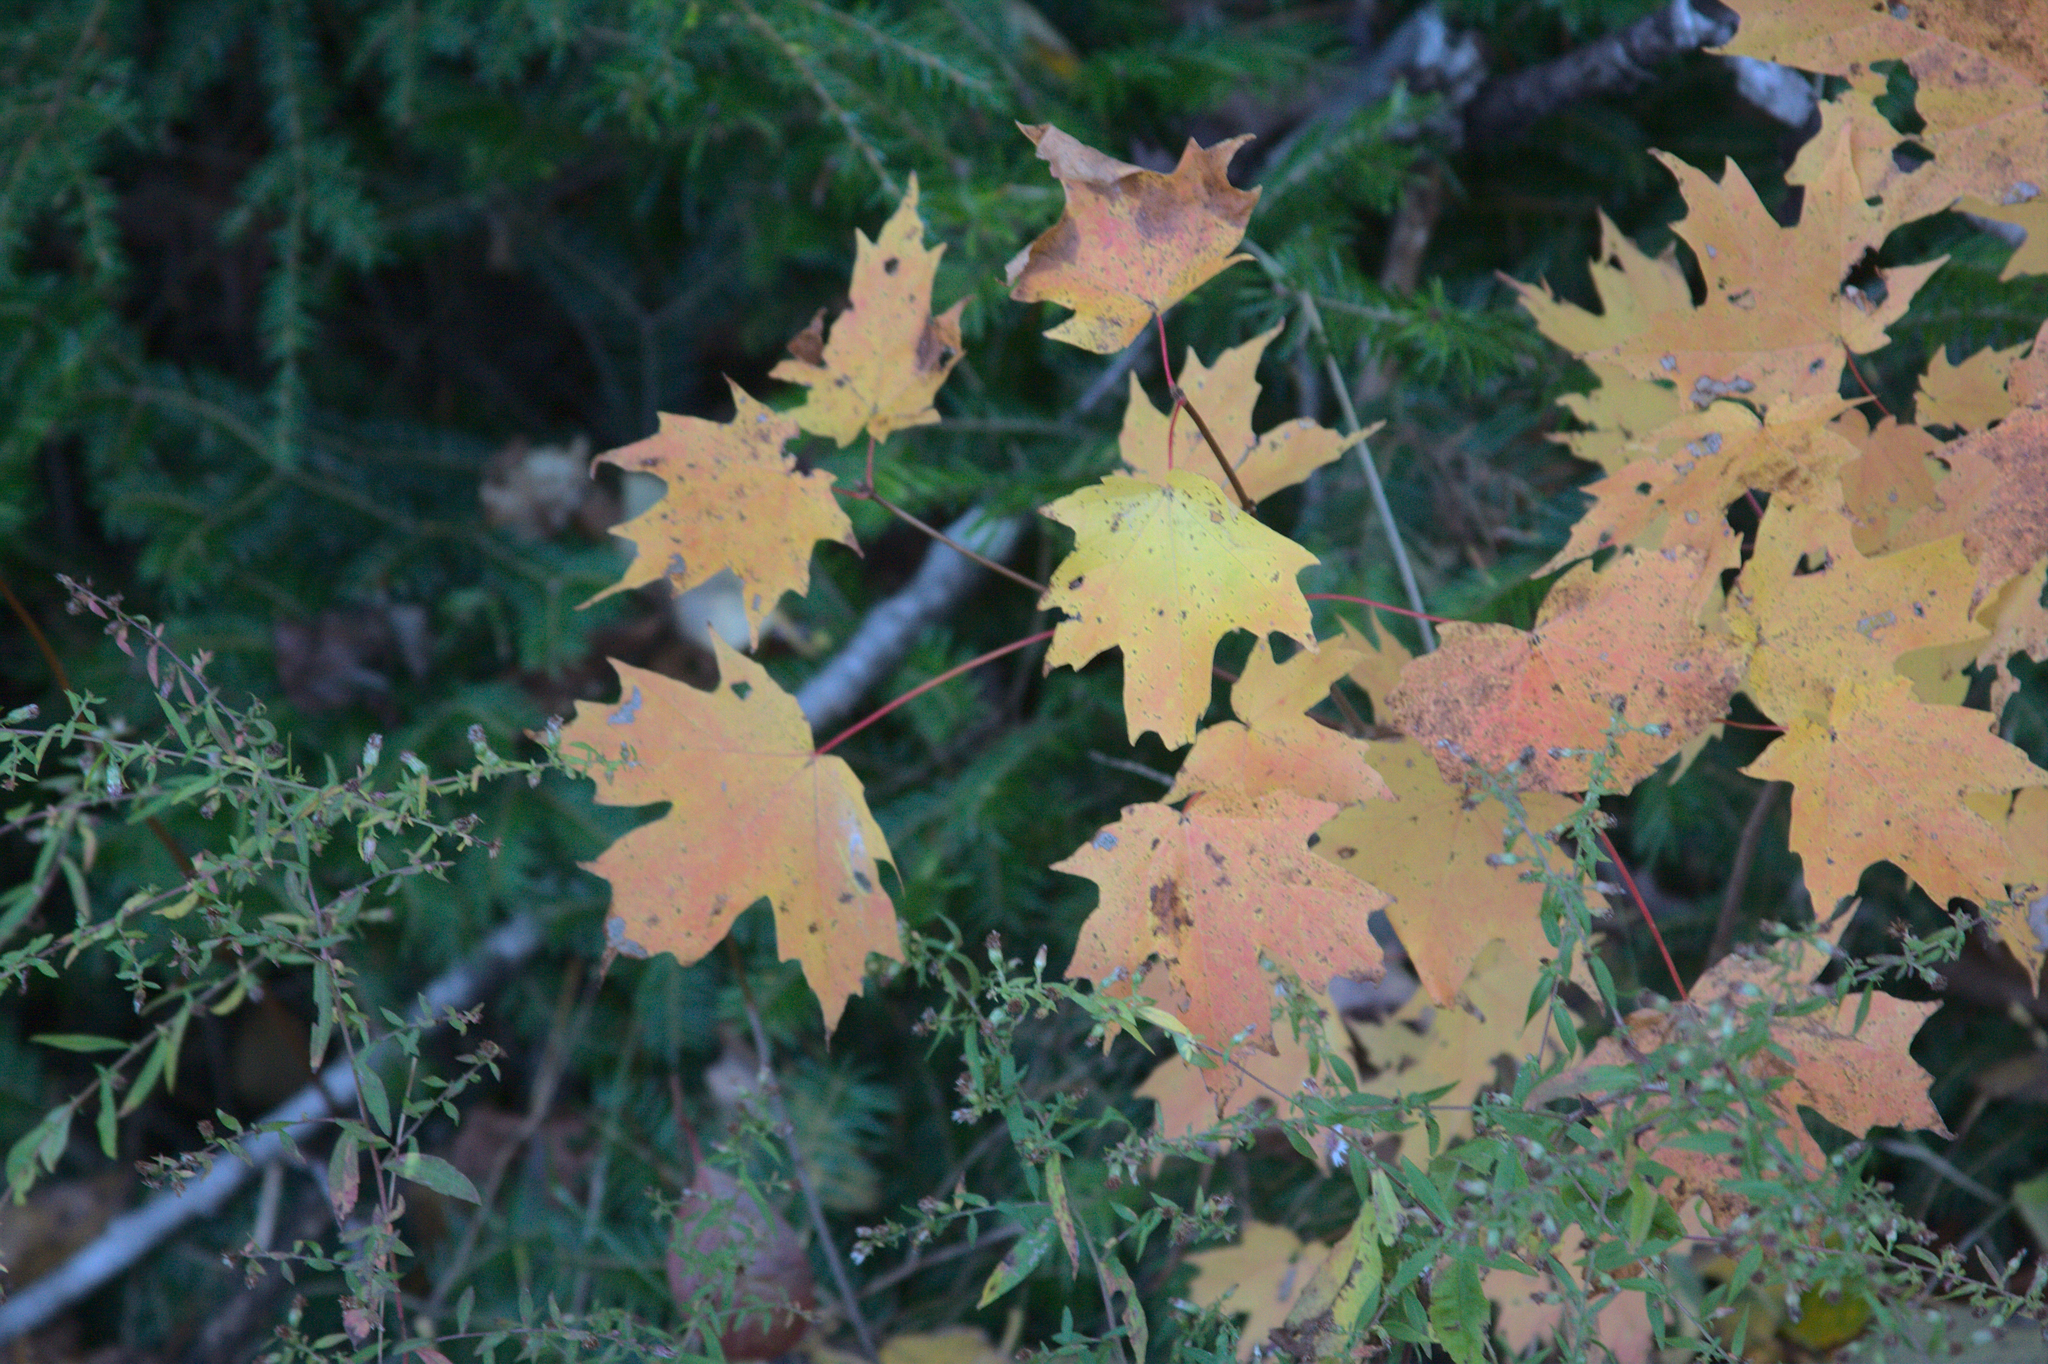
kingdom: Plantae
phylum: Tracheophyta
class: Magnoliopsida
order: Sapindales
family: Sapindaceae
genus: Acer
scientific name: Acer saccharum
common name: Sugar maple
